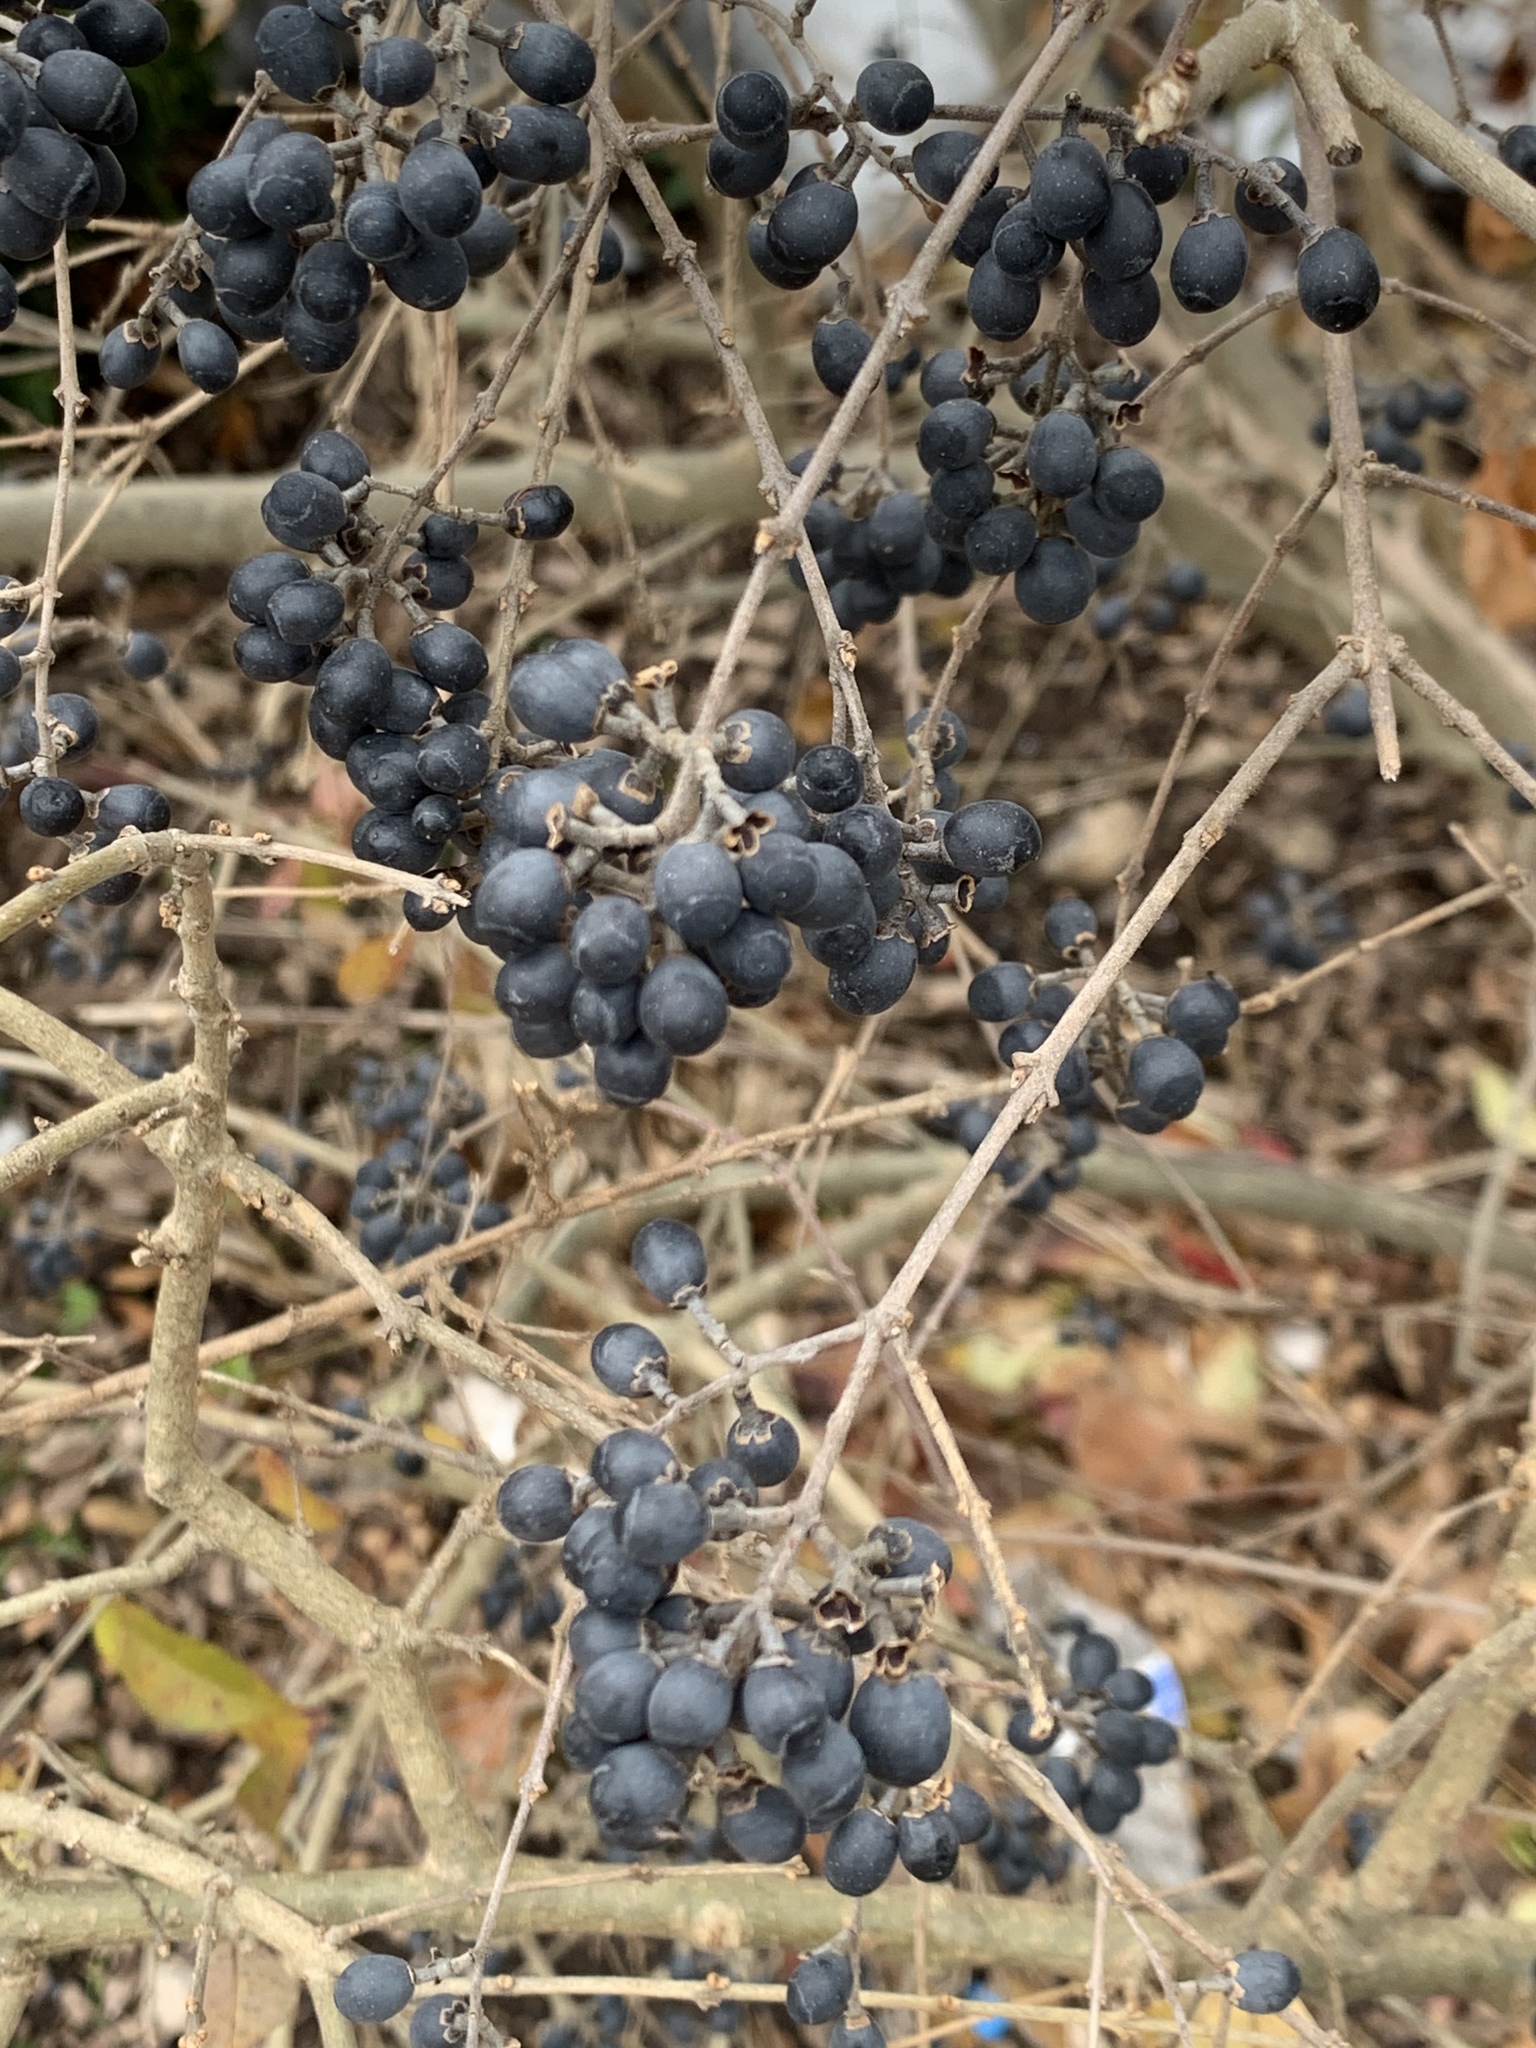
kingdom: Plantae
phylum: Tracheophyta
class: Magnoliopsida
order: Lamiales
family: Oleaceae
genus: Ligustrum
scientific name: Ligustrum obtusifolium
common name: Border privet
